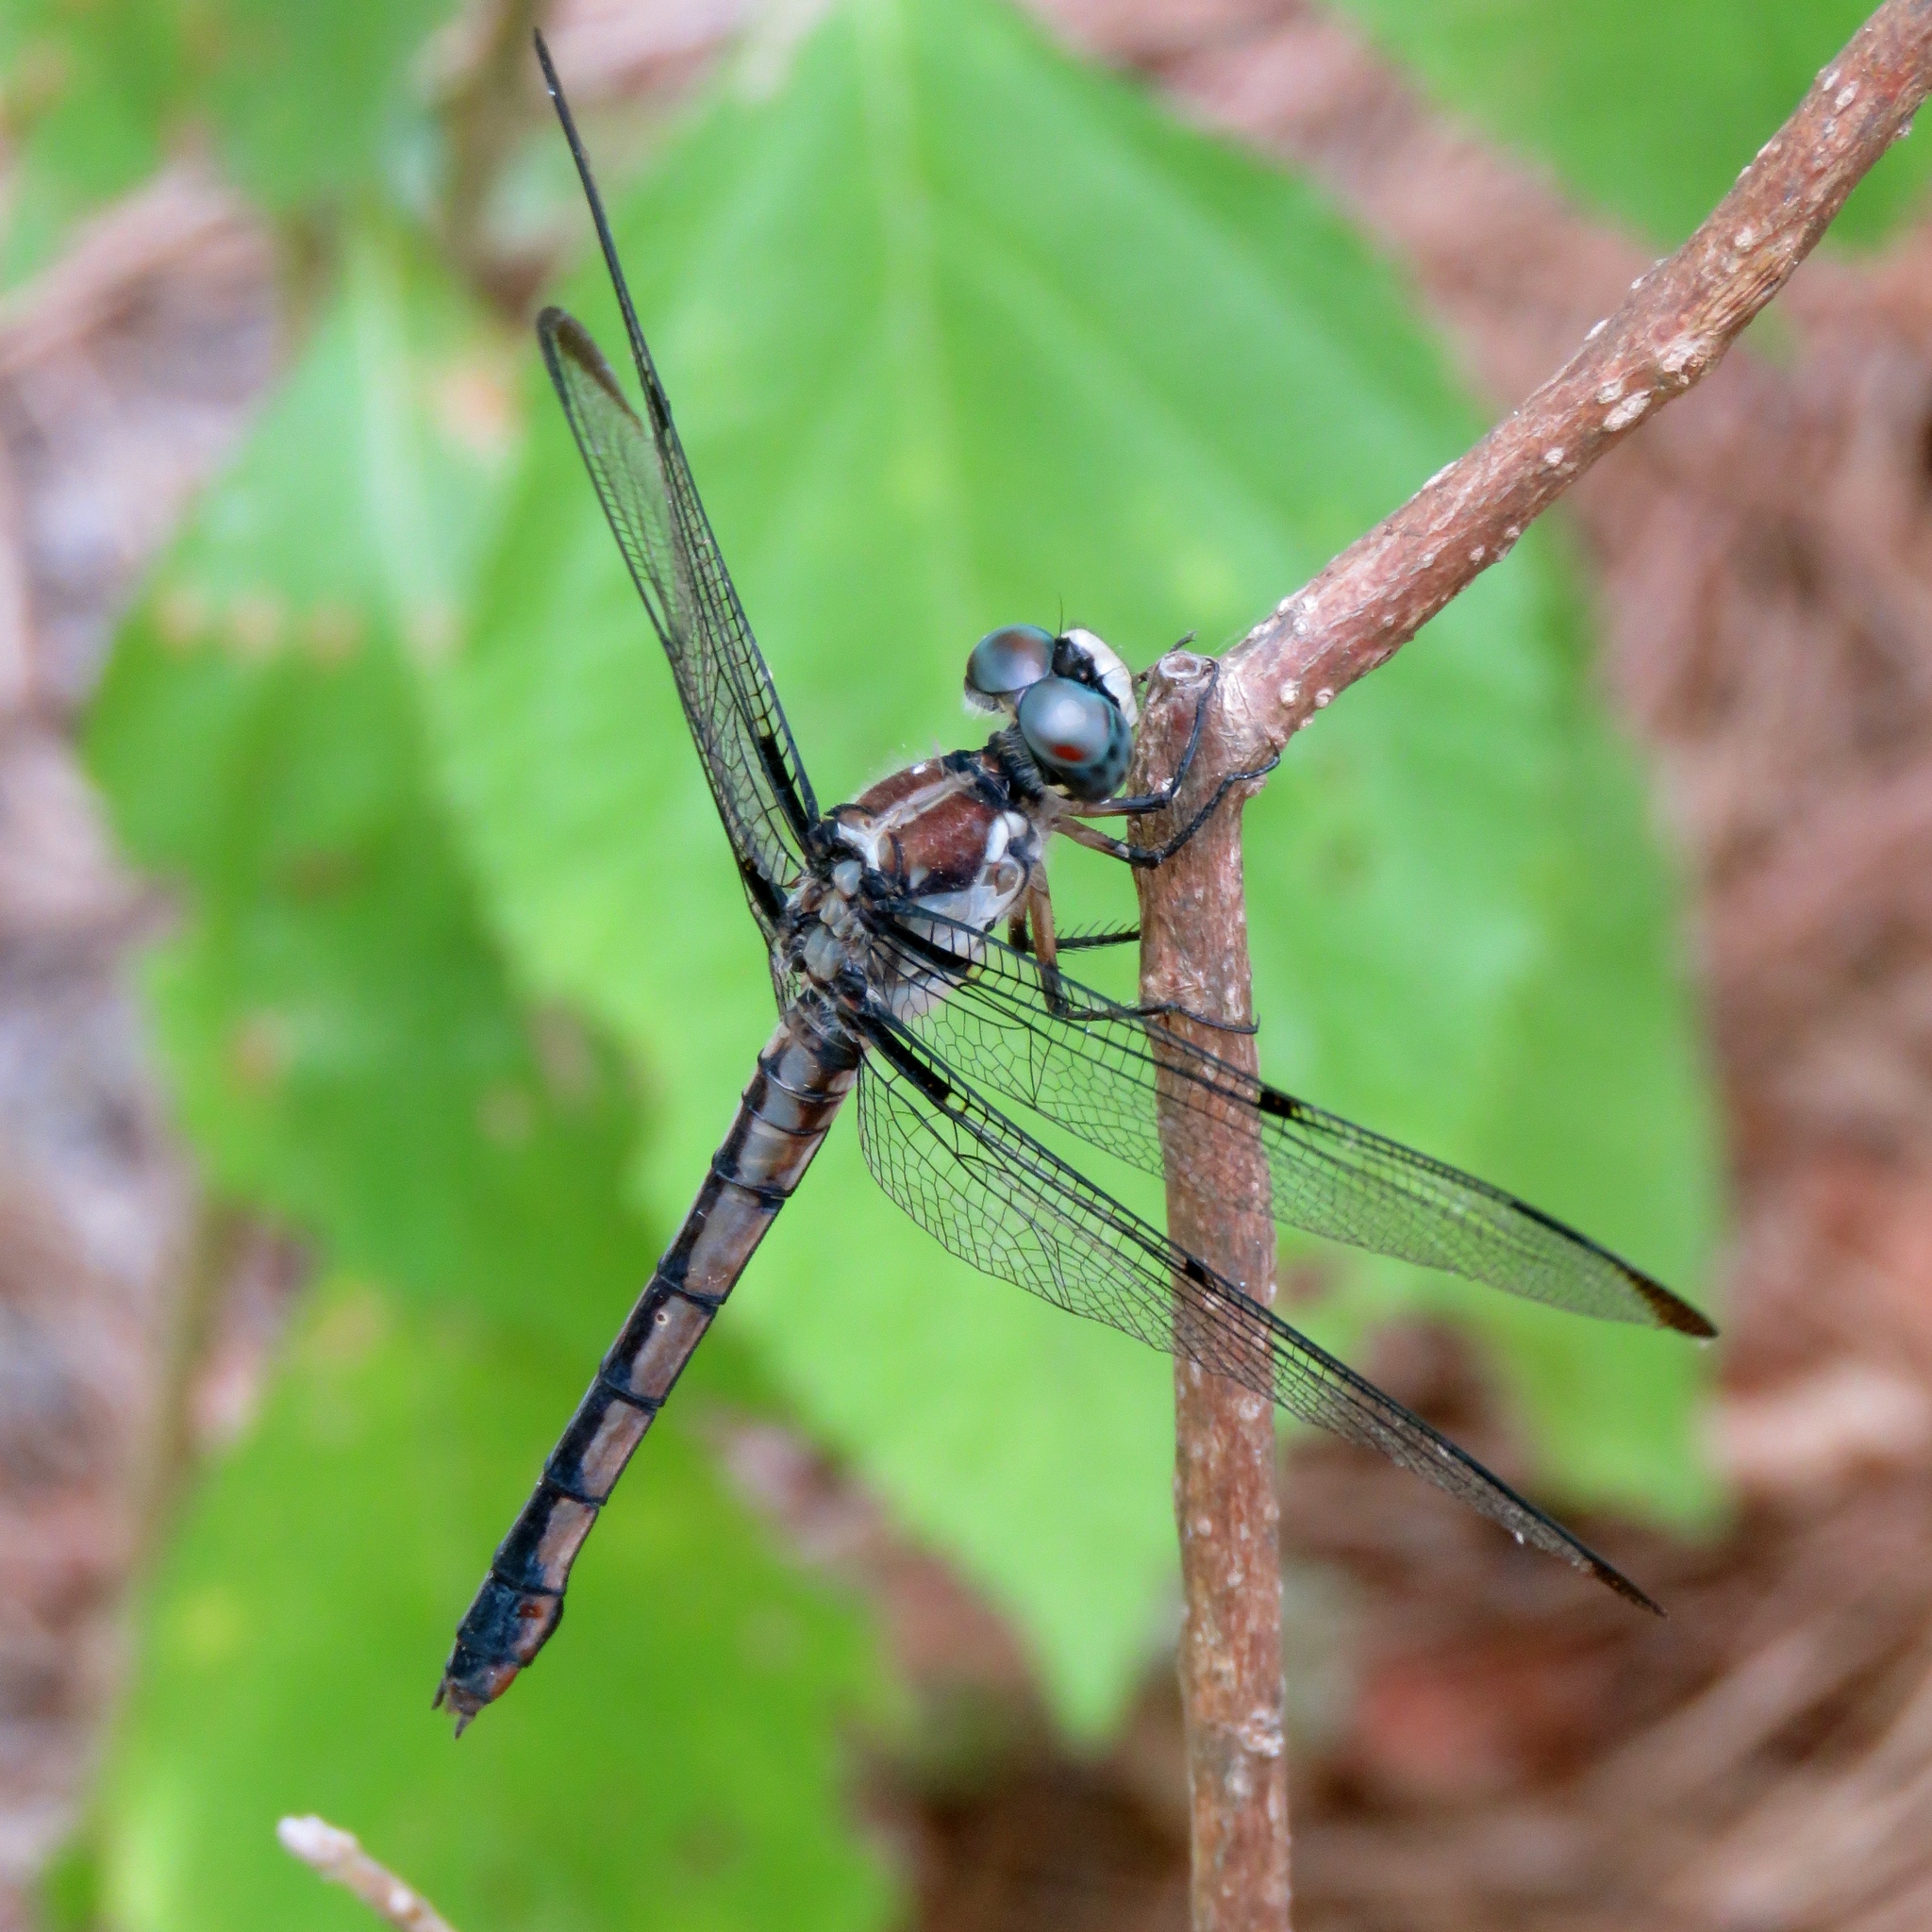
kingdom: Animalia
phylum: Arthropoda
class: Insecta
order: Odonata
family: Libellulidae
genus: Libellula
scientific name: Libellula vibrans
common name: Great blue skimmer
